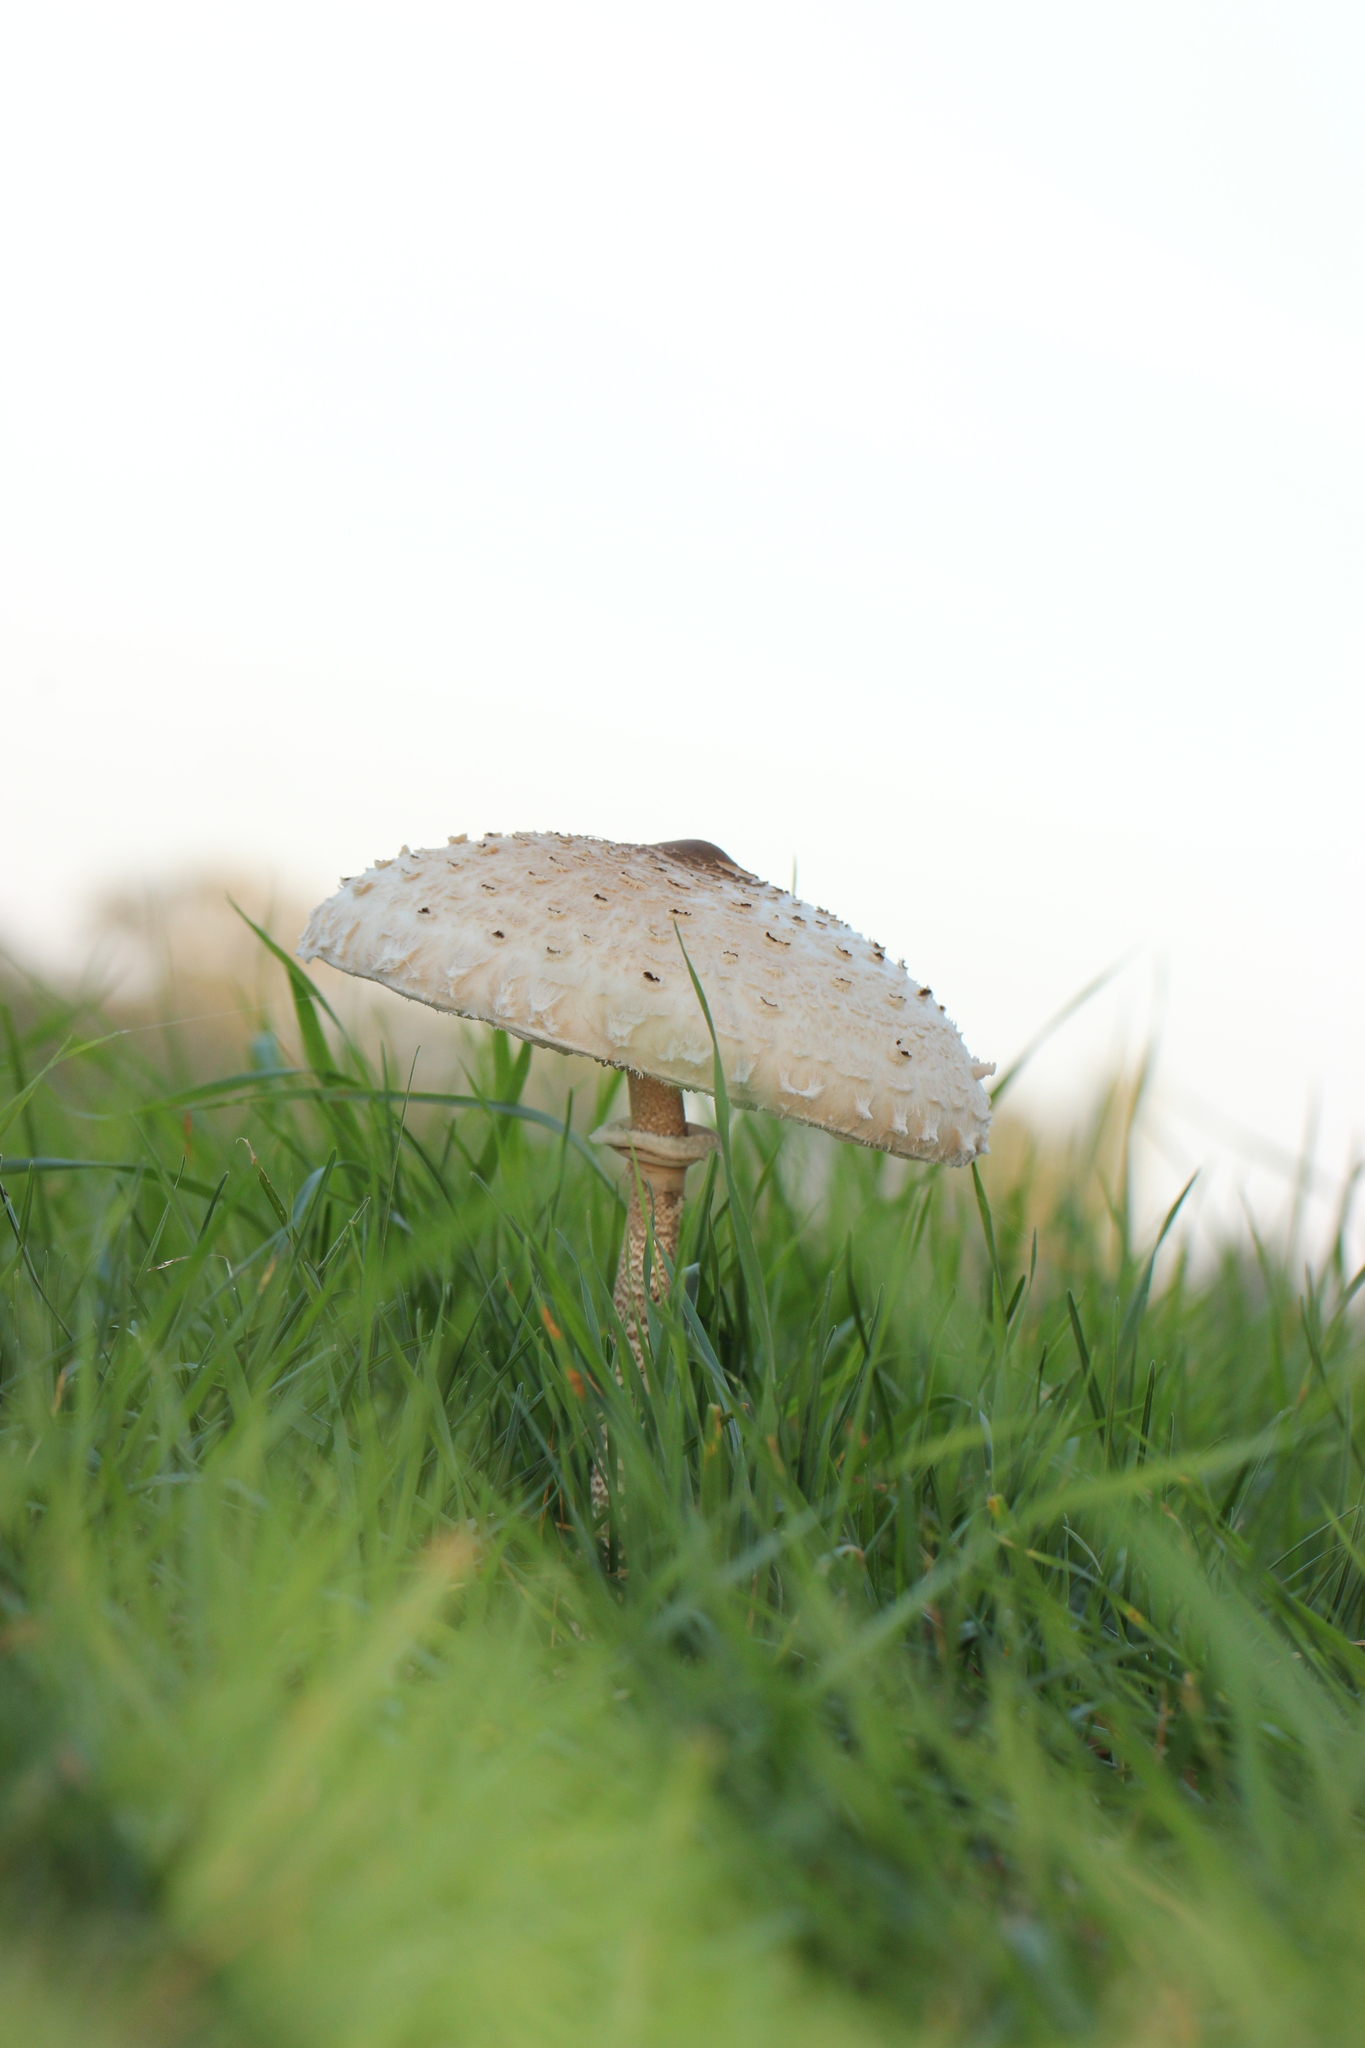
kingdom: Fungi
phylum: Basidiomycota
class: Agaricomycetes
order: Agaricales
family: Agaricaceae
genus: Macrolepiota
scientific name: Macrolepiota procera
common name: Parasol
